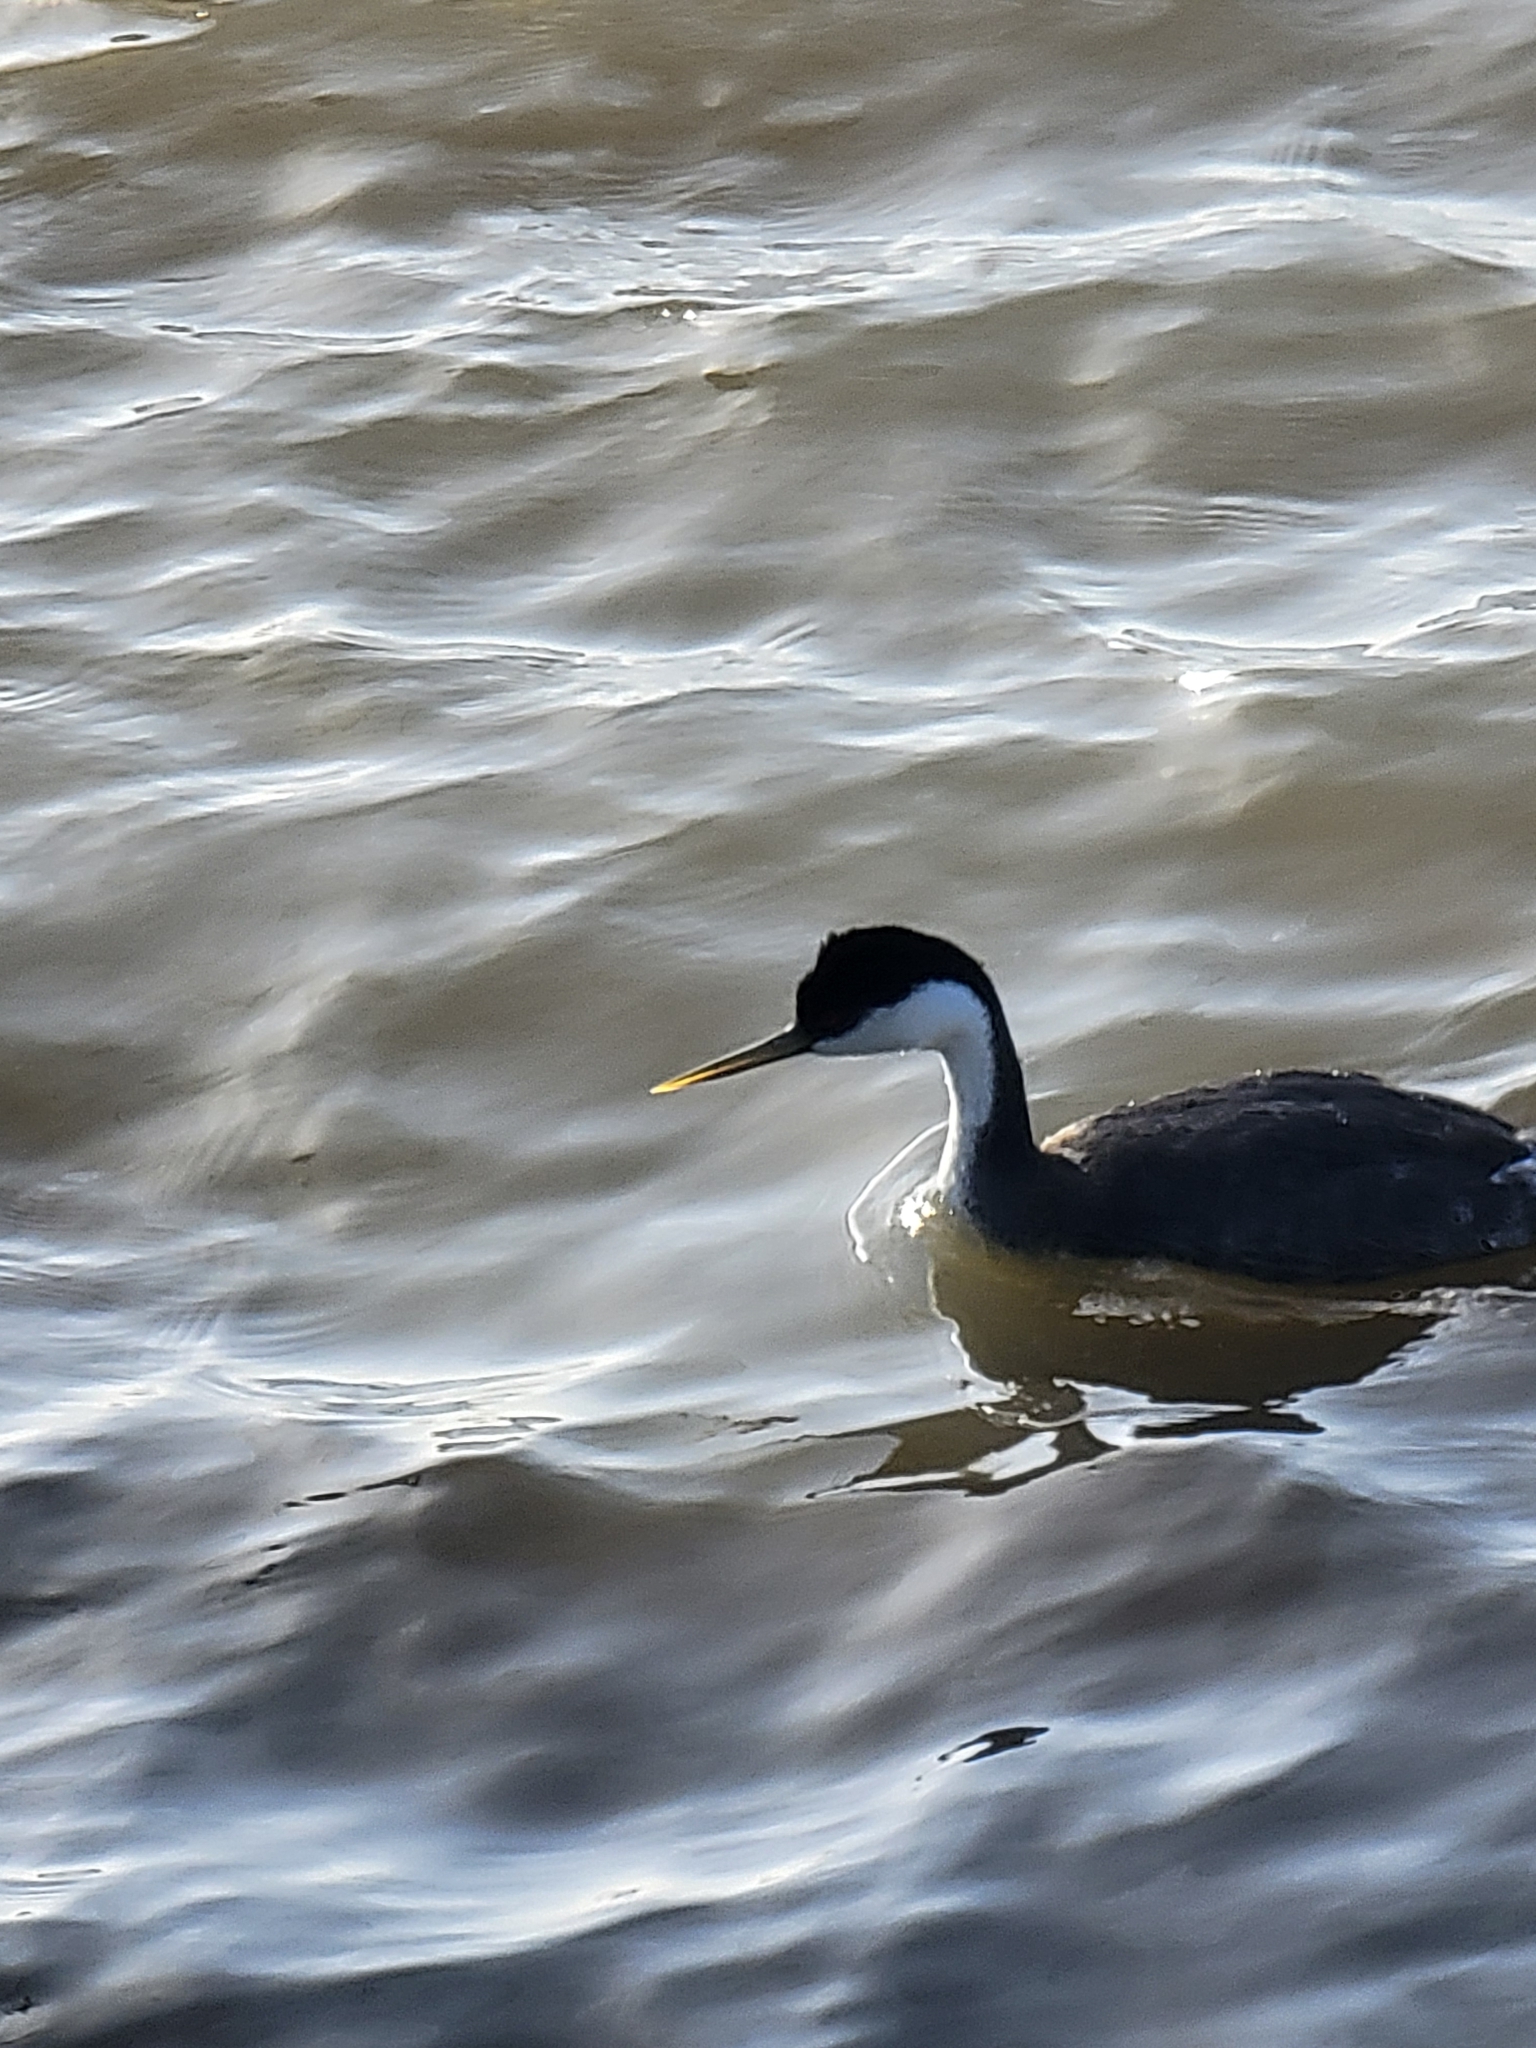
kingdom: Animalia
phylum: Chordata
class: Aves
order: Podicipediformes
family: Podicipedidae
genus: Aechmophorus
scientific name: Aechmophorus occidentalis
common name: Western grebe
